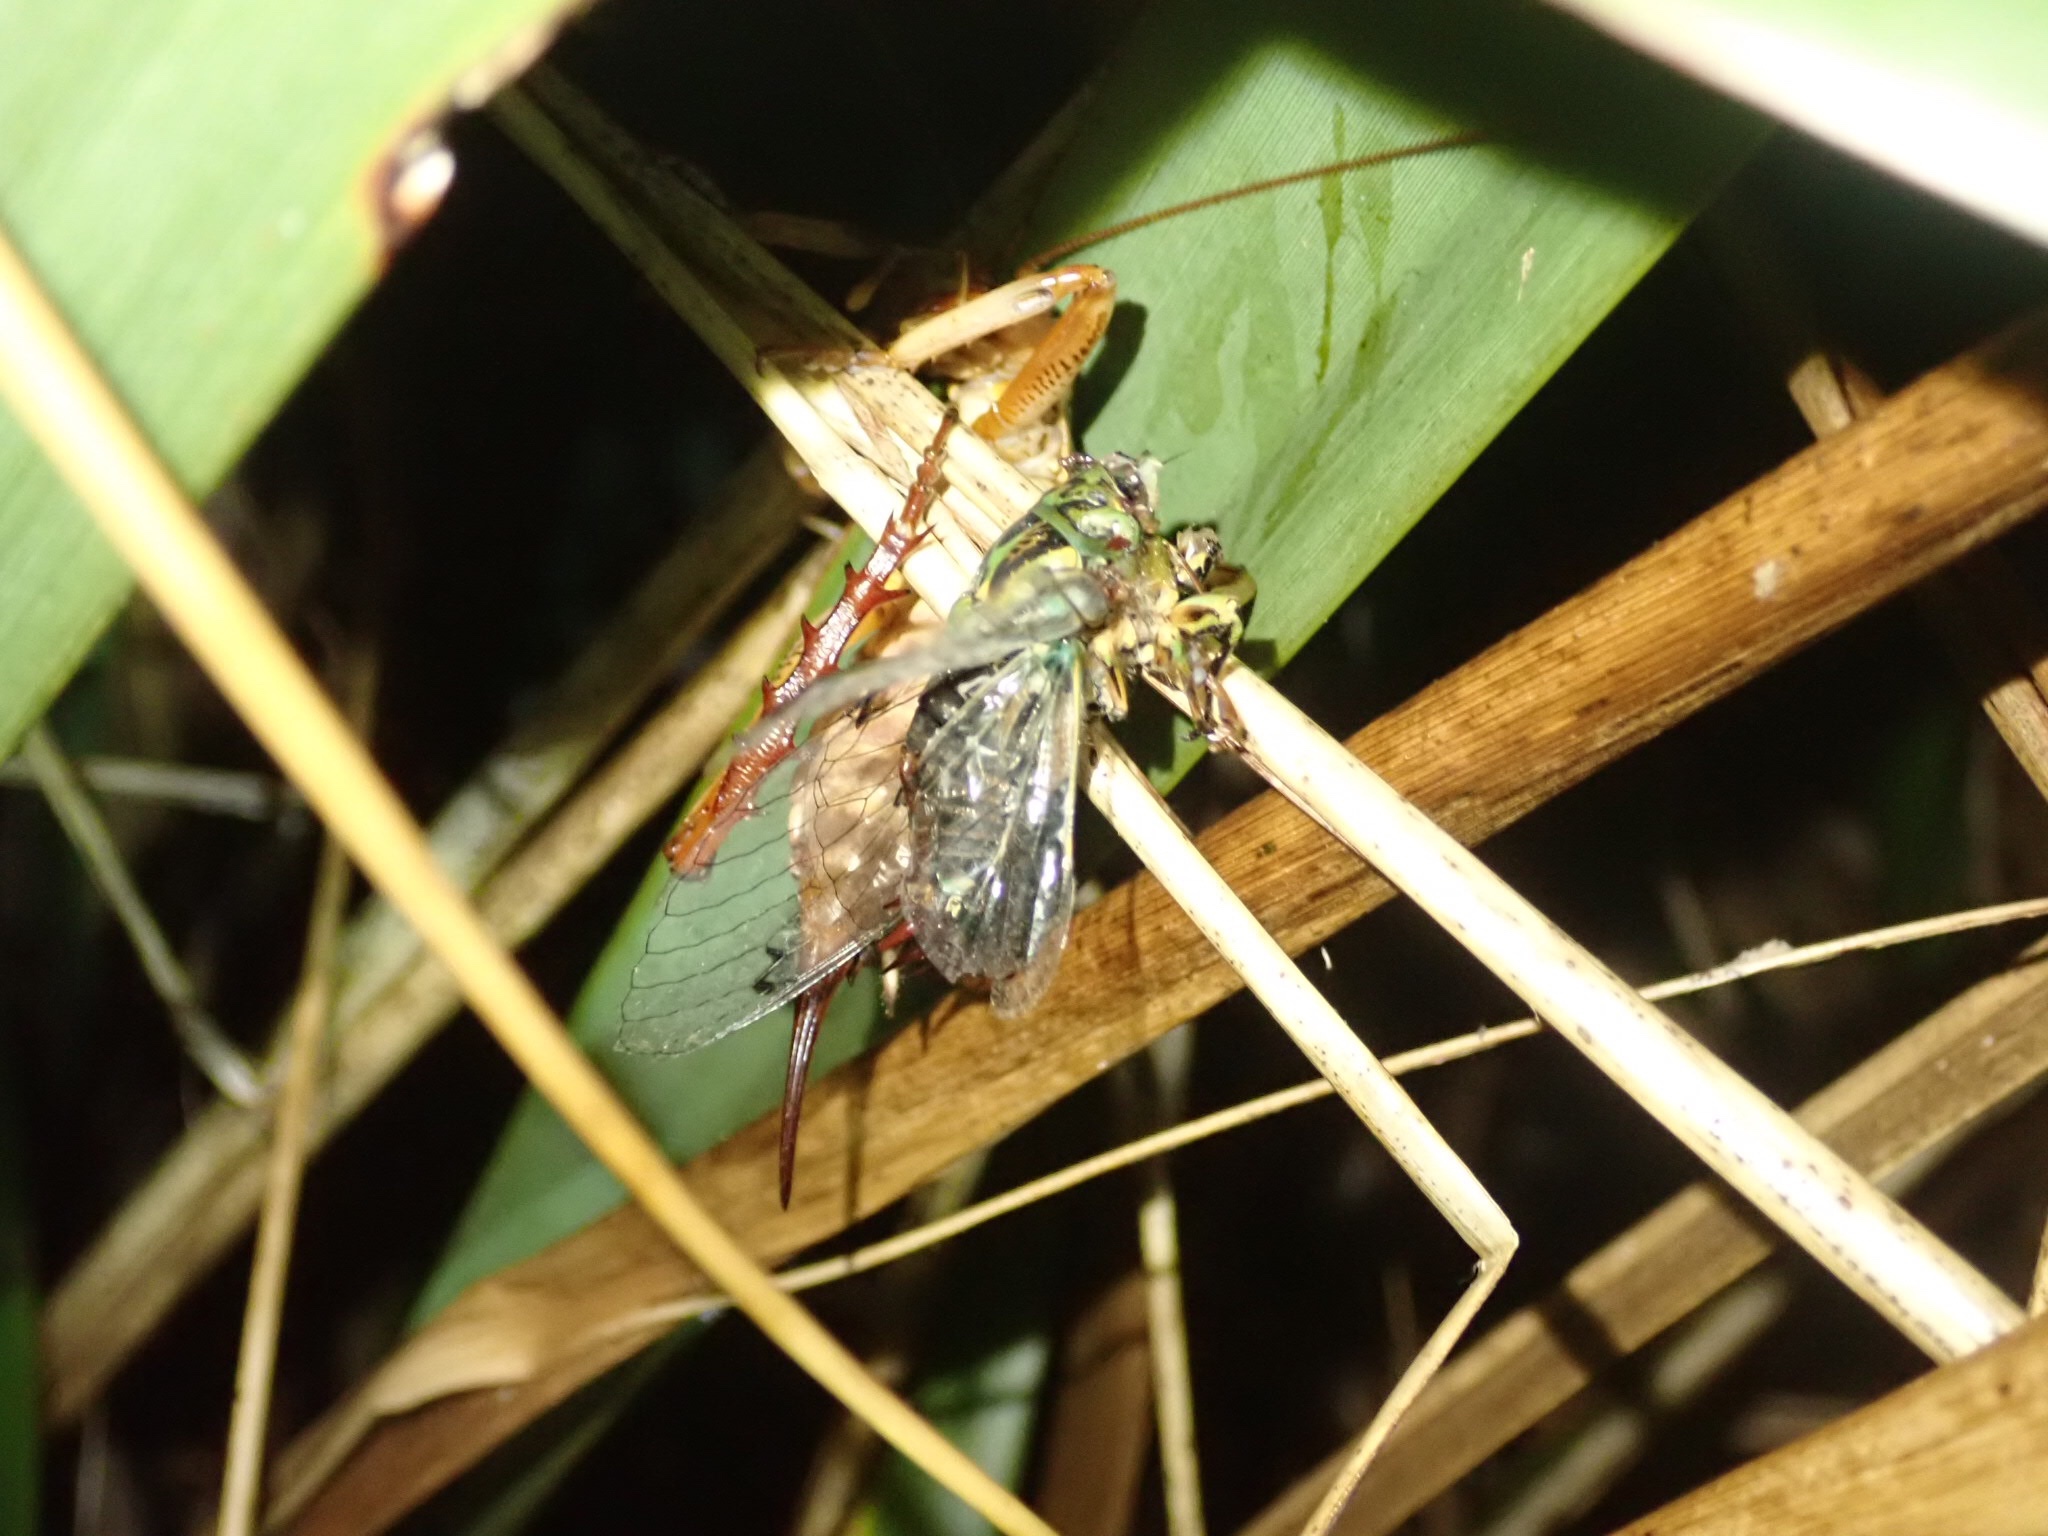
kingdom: Animalia
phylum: Arthropoda
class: Insecta
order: Orthoptera
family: Anostostomatidae
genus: Hemideina
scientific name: Hemideina crassidens
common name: Wellington tree weta
